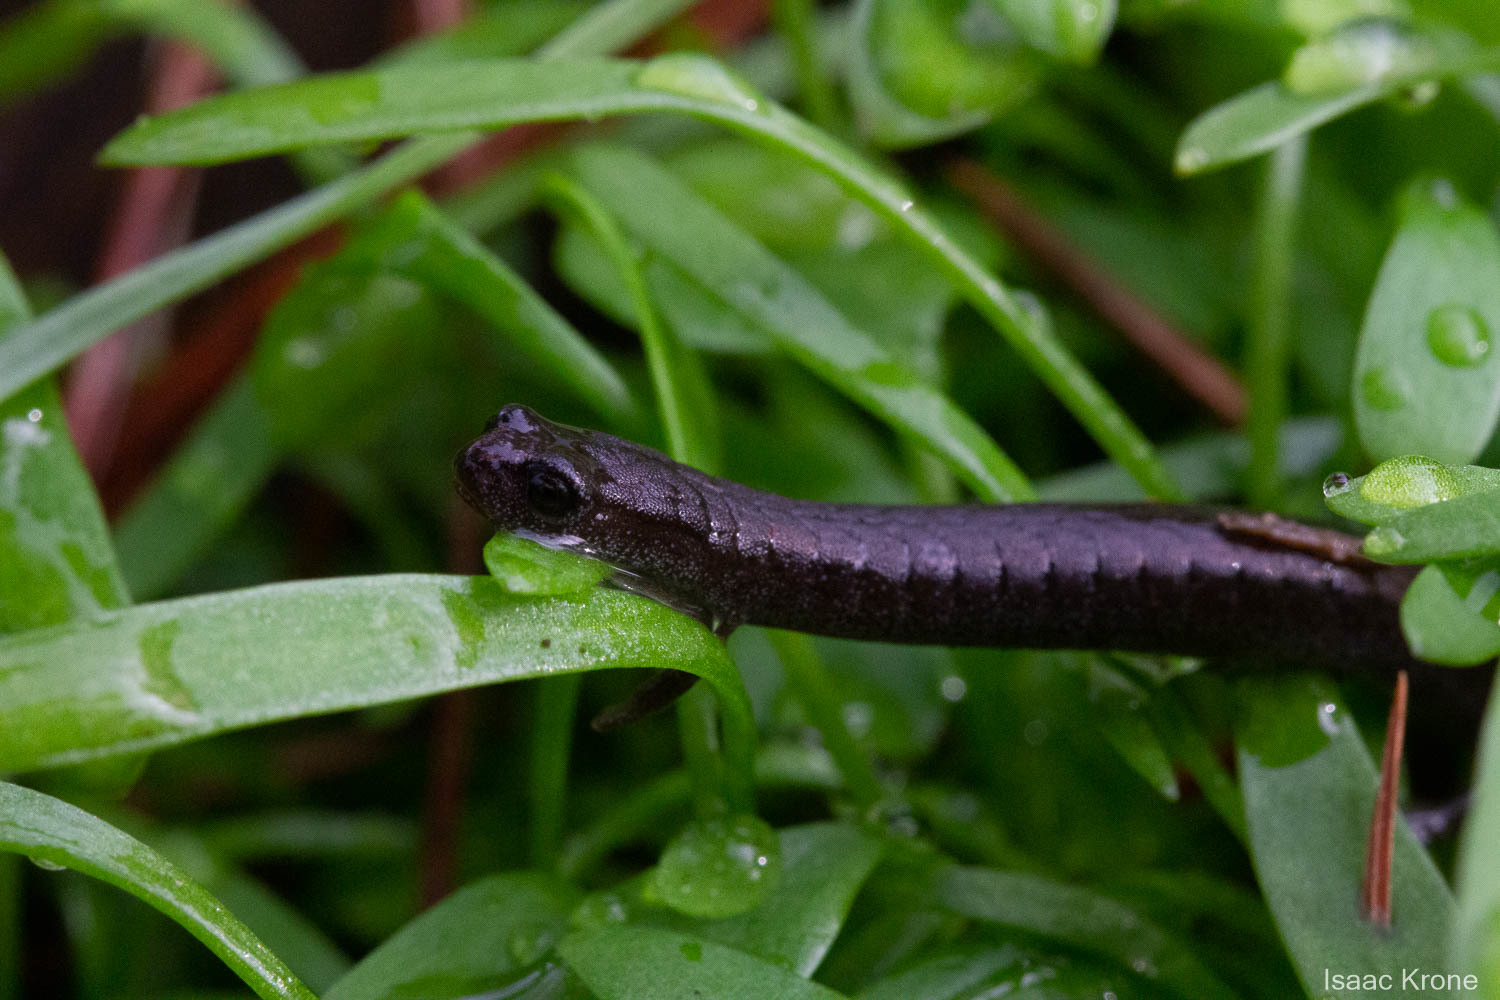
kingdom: Animalia
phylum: Chordata
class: Amphibia
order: Caudata
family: Plethodontidae
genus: Batrachoseps
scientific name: Batrachoseps attenuatus
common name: California slender salamander
